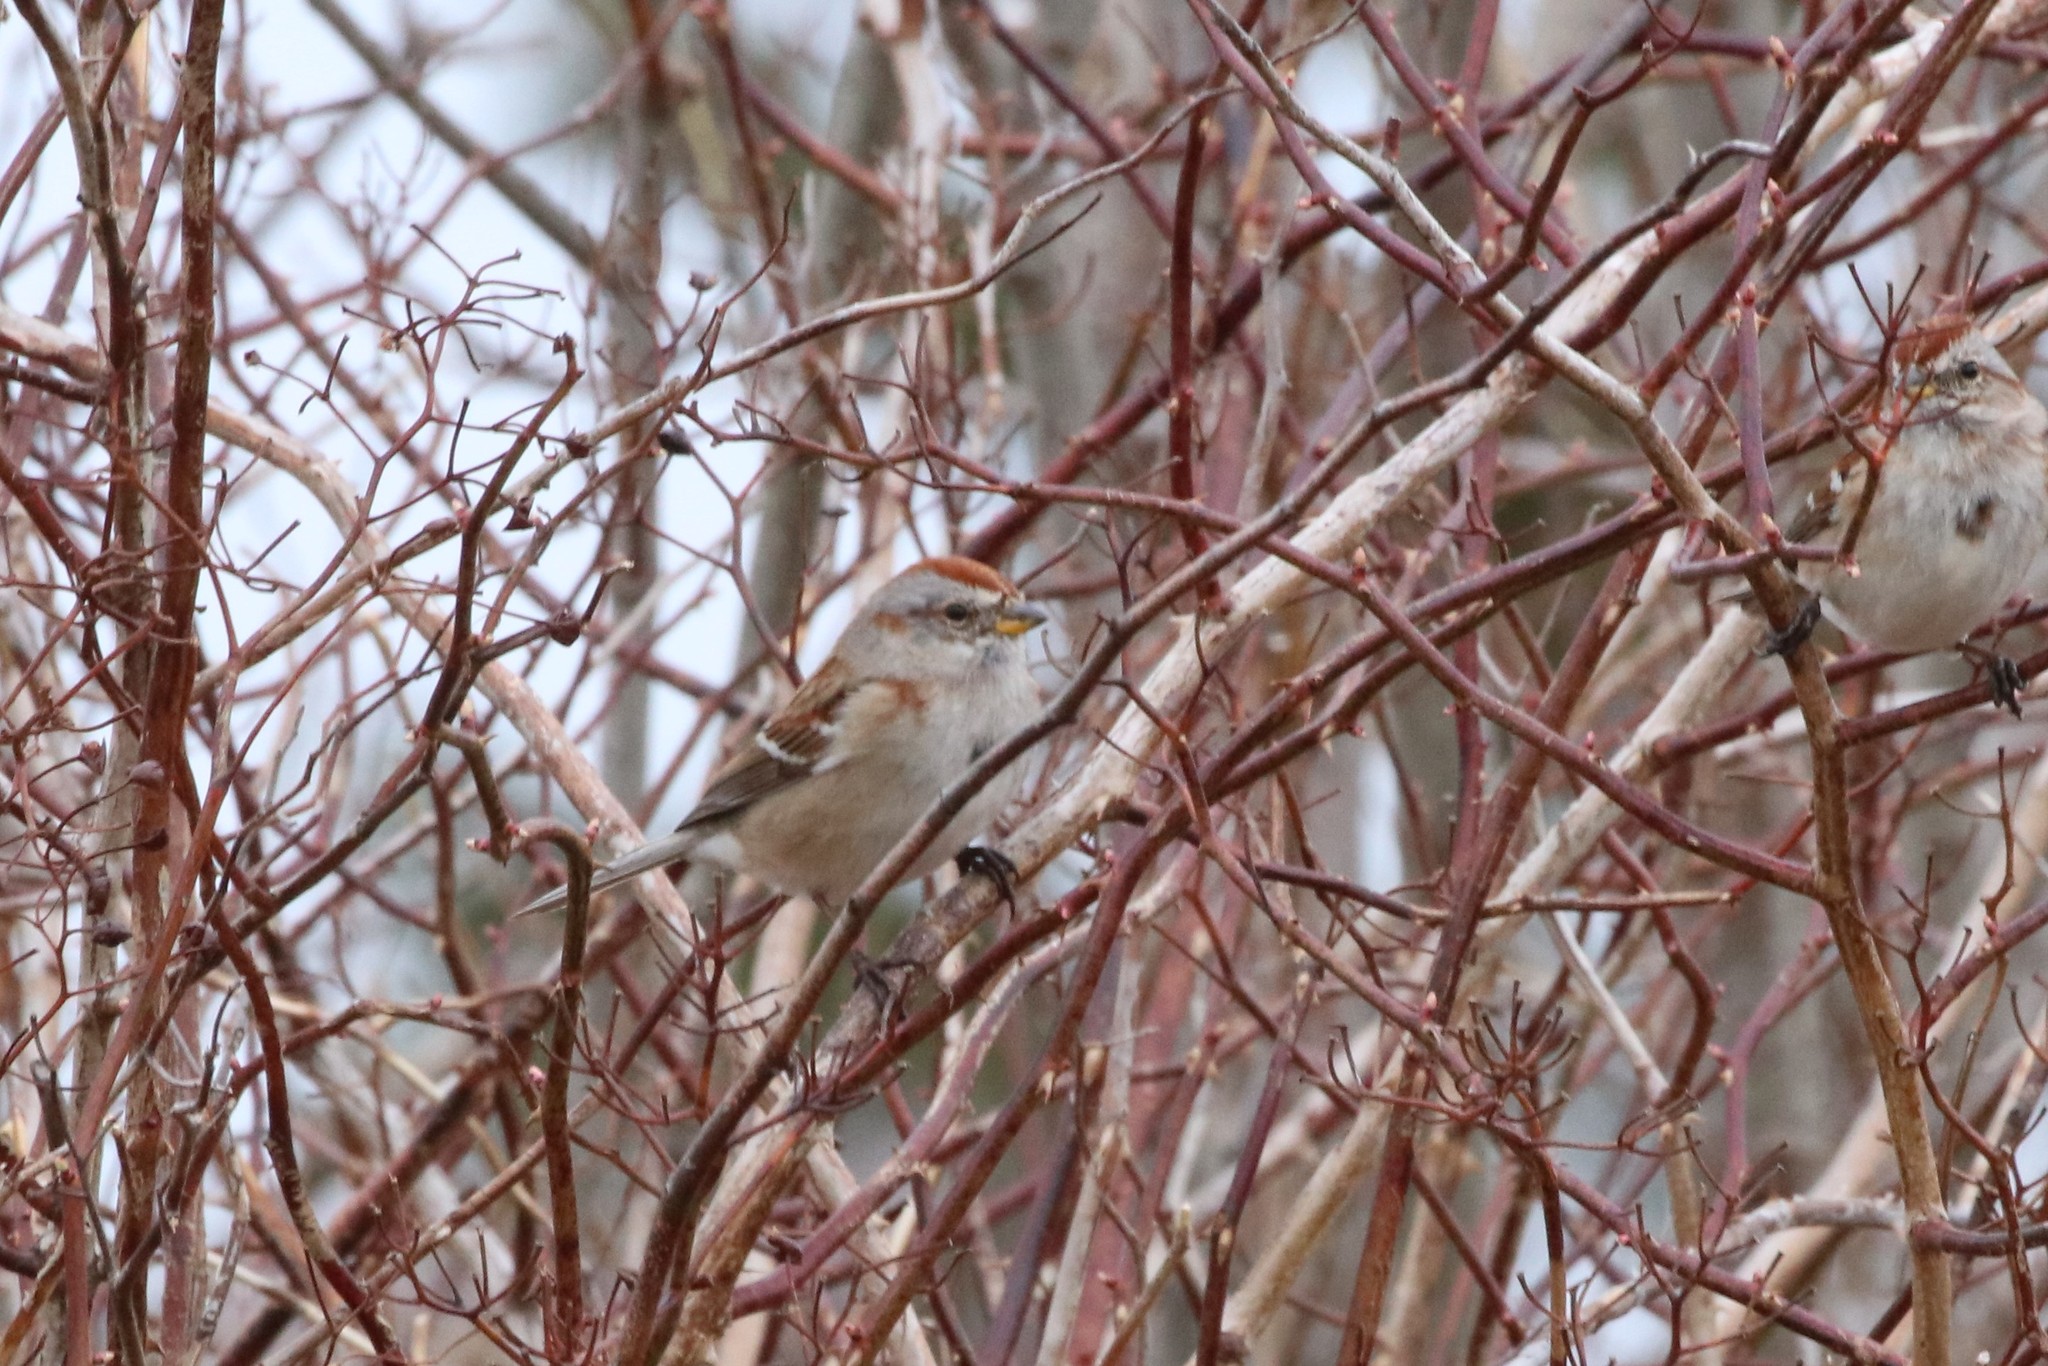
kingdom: Animalia
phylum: Chordata
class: Aves
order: Passeriformes
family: Passerellidae
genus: Spizelloides
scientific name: Spizelloides arborea
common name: American tree sparrow
